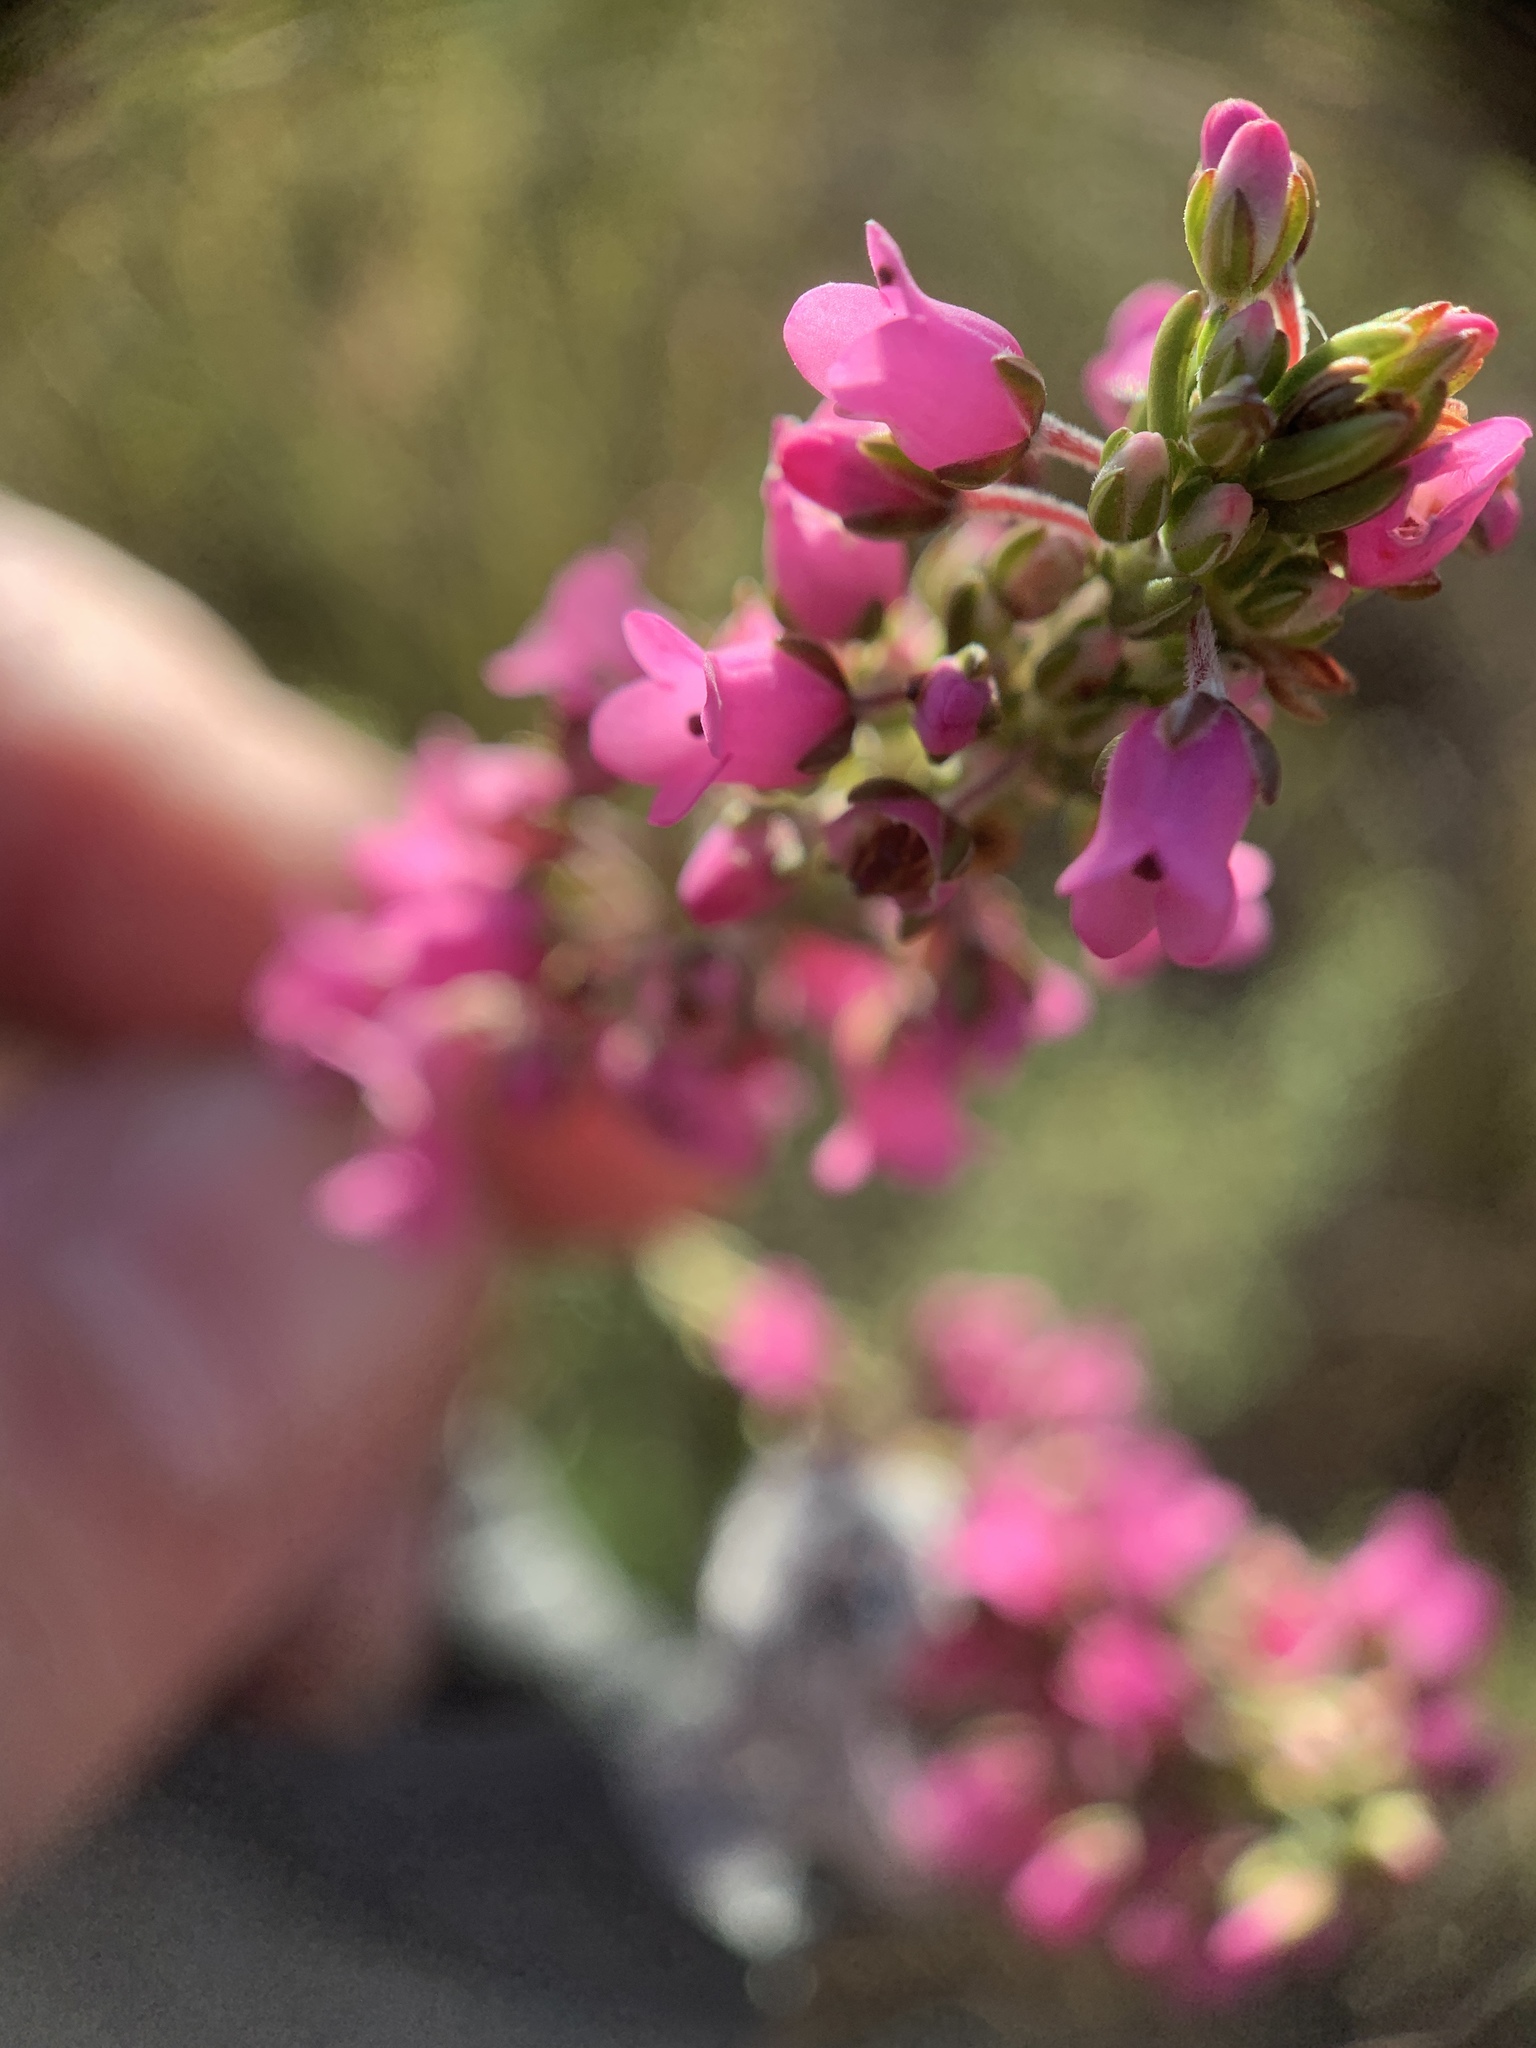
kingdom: Plantae
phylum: Tracheophyta
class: Magnoliopsida
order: Ericales
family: Ericaceae
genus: Erica
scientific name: Erica pulchella
